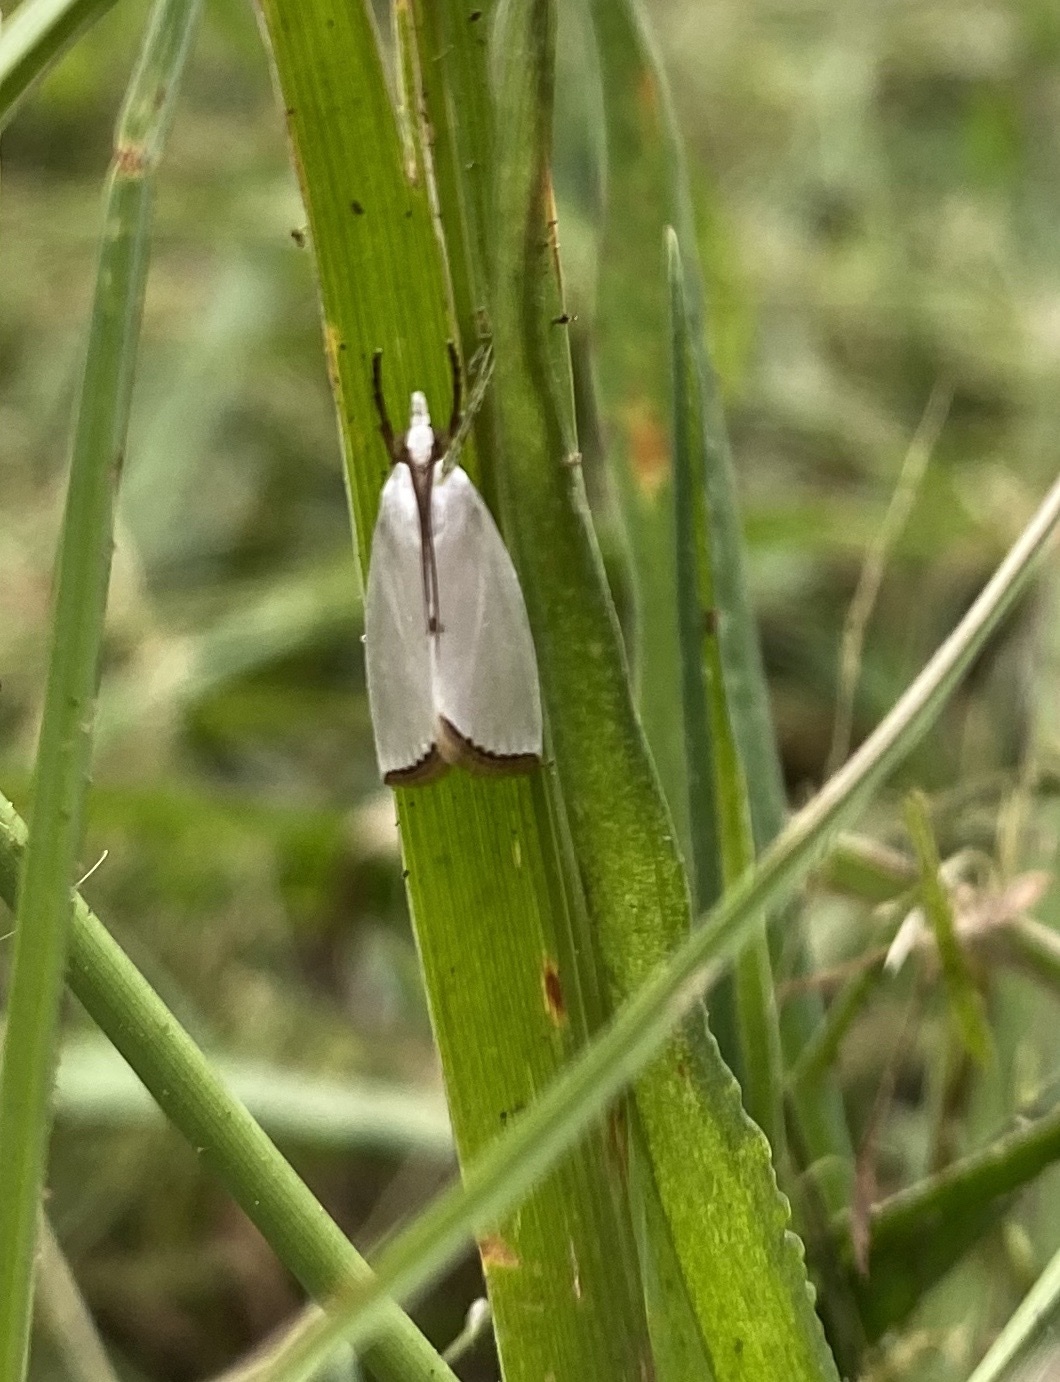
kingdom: Animalia
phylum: Arthropoda
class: Insecta
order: Lepidoptera
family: Crambidae
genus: Argyria
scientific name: Argyria nivalis
